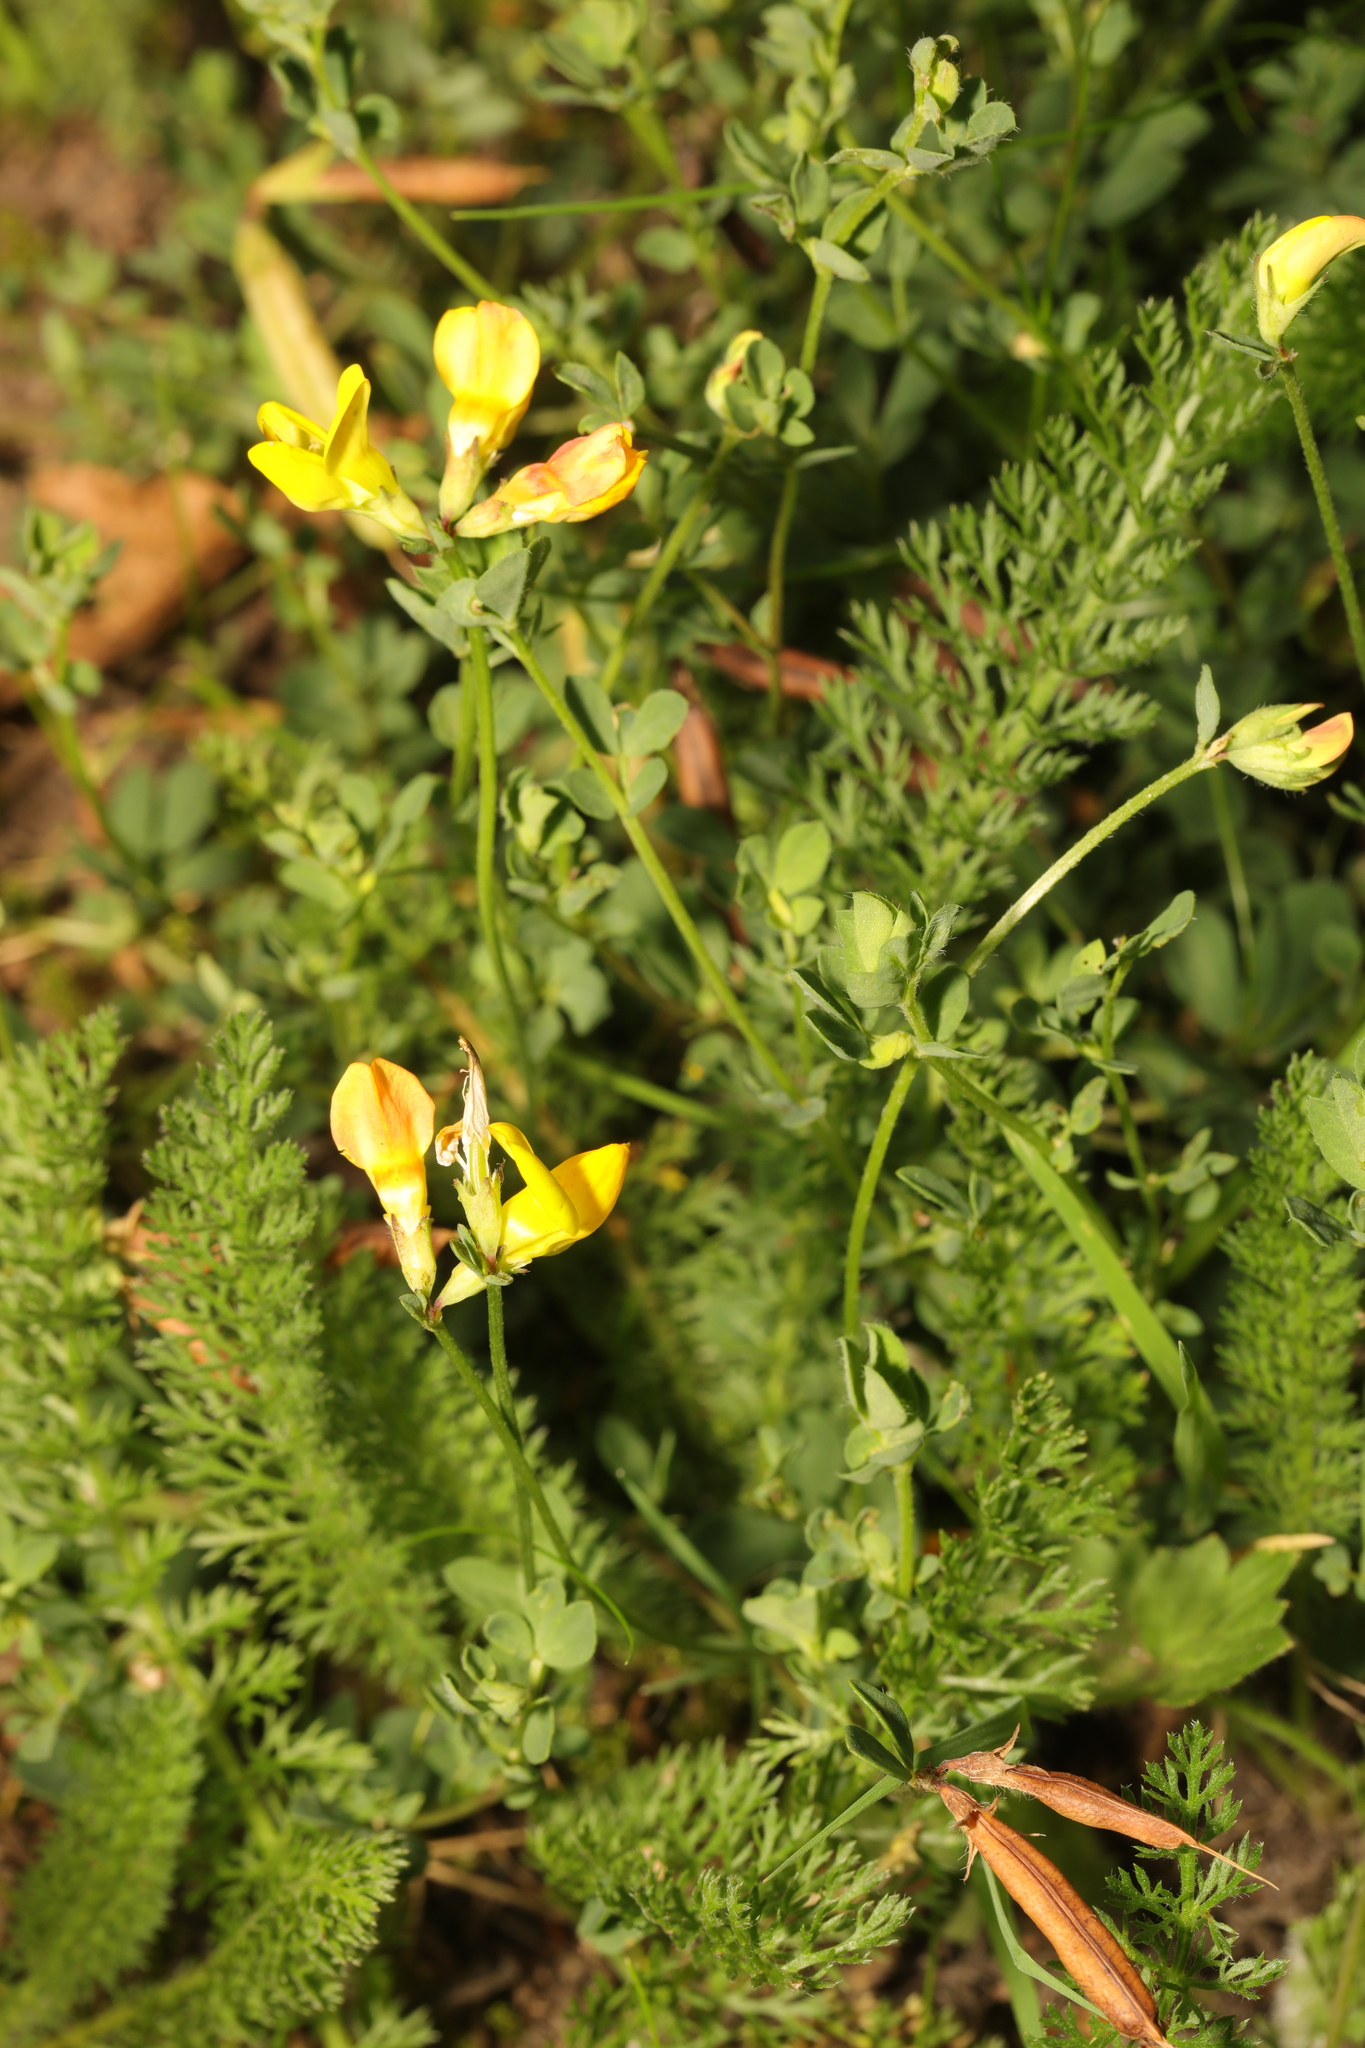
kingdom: Plantae
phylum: Tracheophyta
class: Magnoliopsida
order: Fabales
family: Fabaceae
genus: Lotus
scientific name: Lotus corniculatus
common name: Common bird's-foot-trefoil
